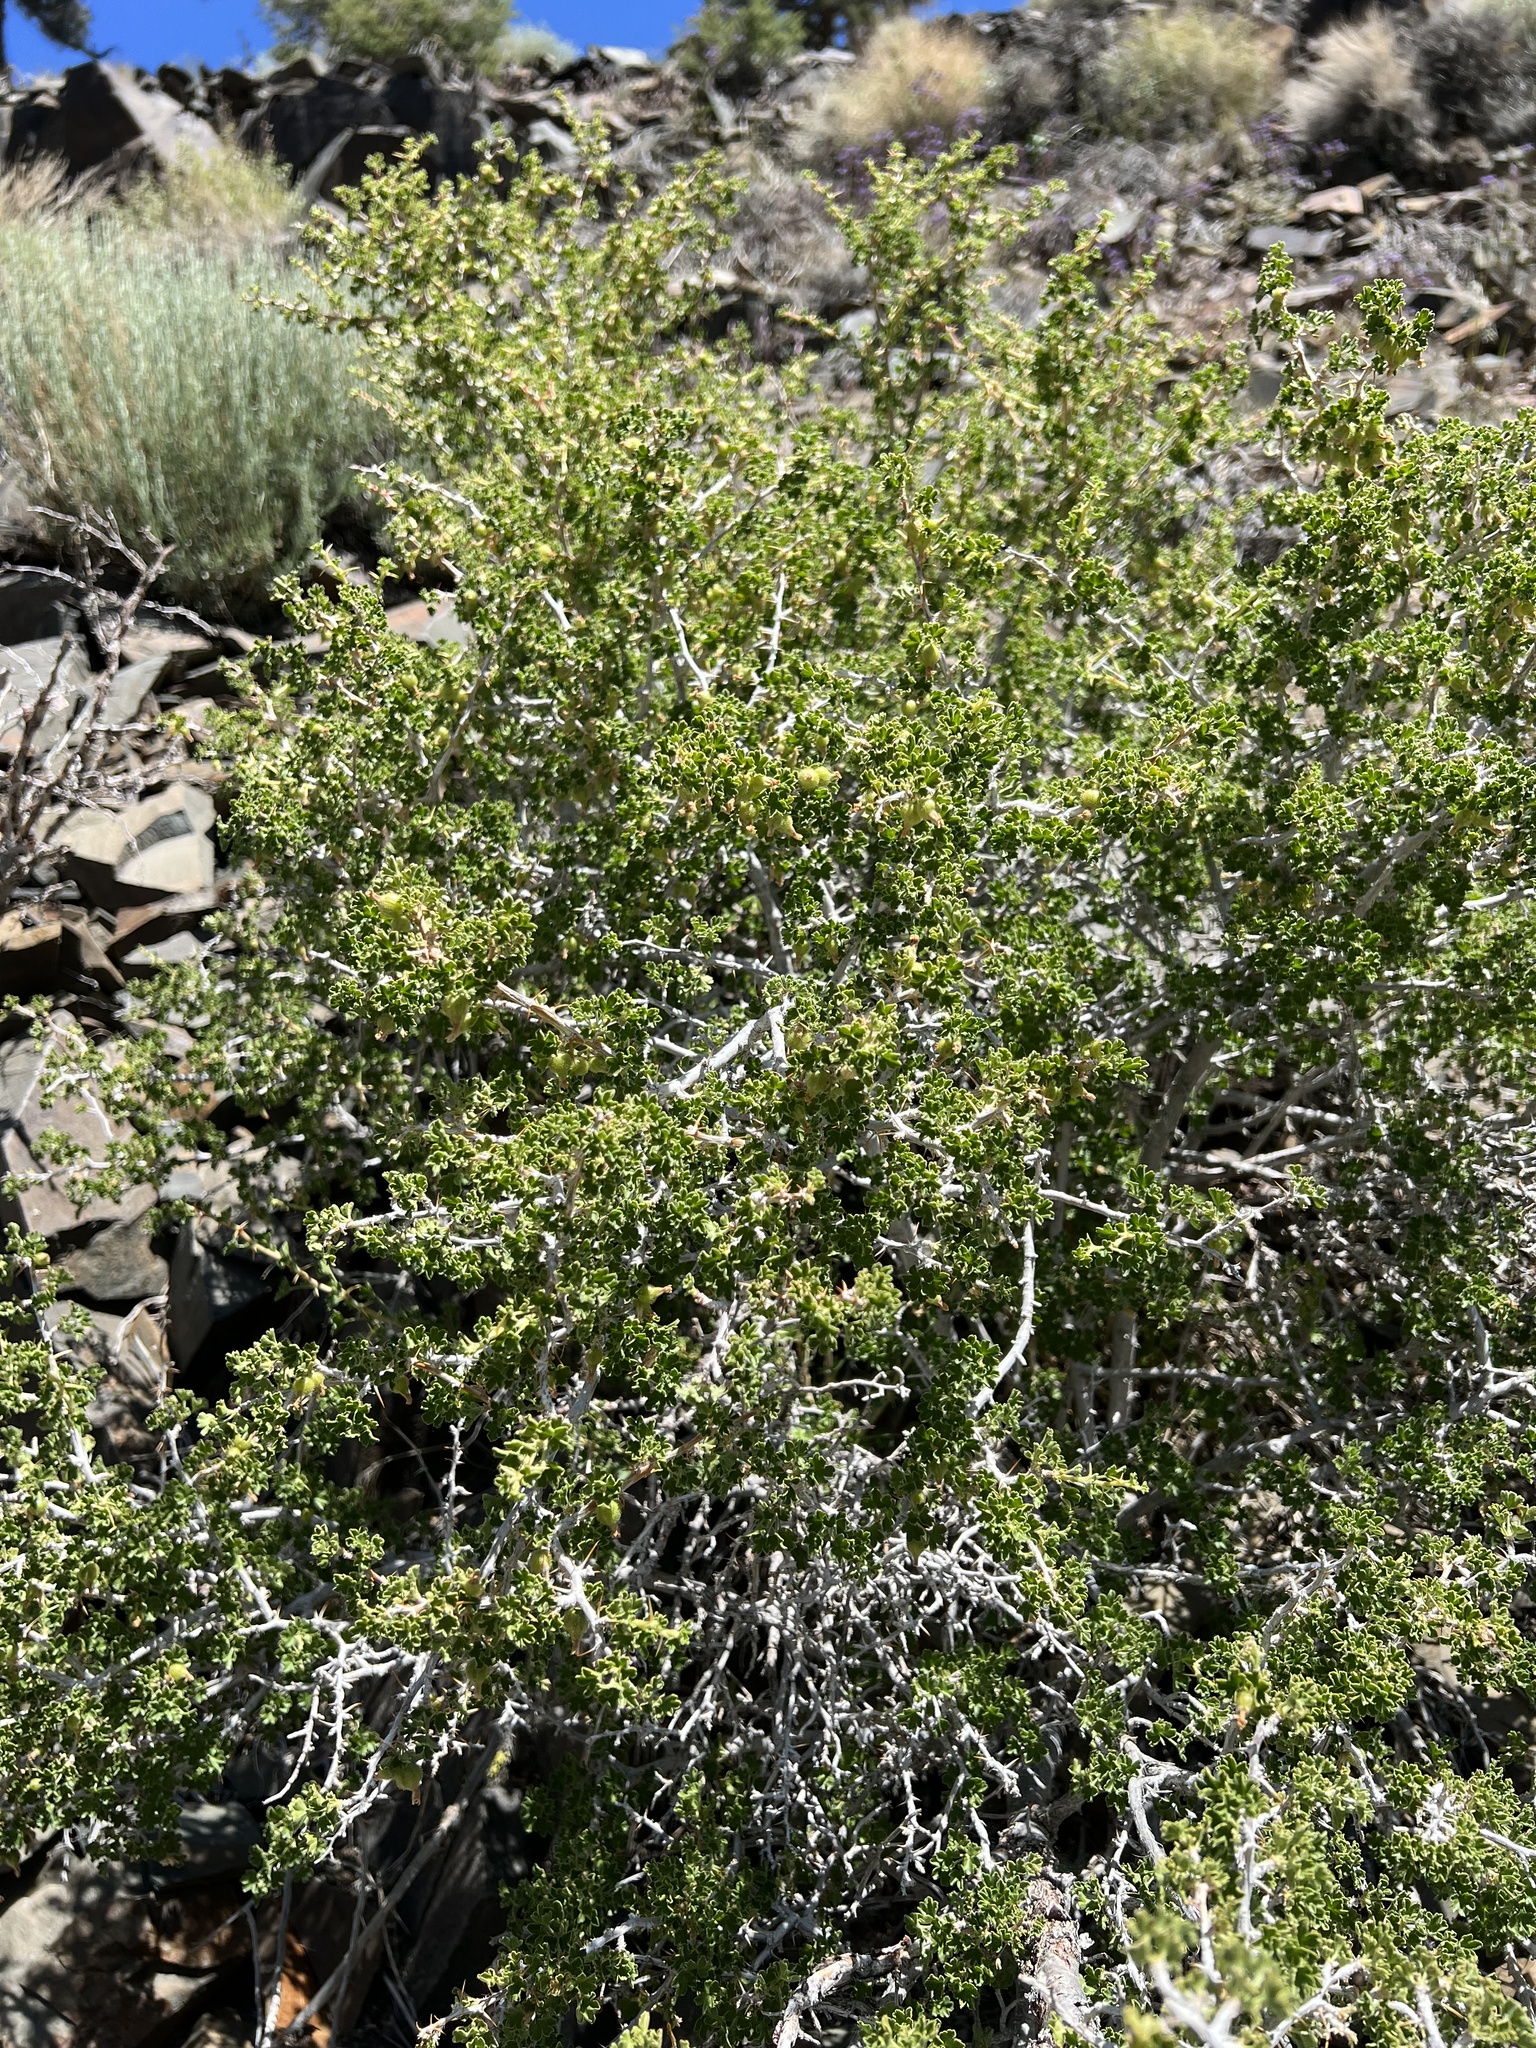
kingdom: Plantae
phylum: Tracheophyta
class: Magnoliopsida
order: Saxifragales
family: Grossulariaceae
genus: Ribes
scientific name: Ribes velutinum
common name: Desert gooseberry
